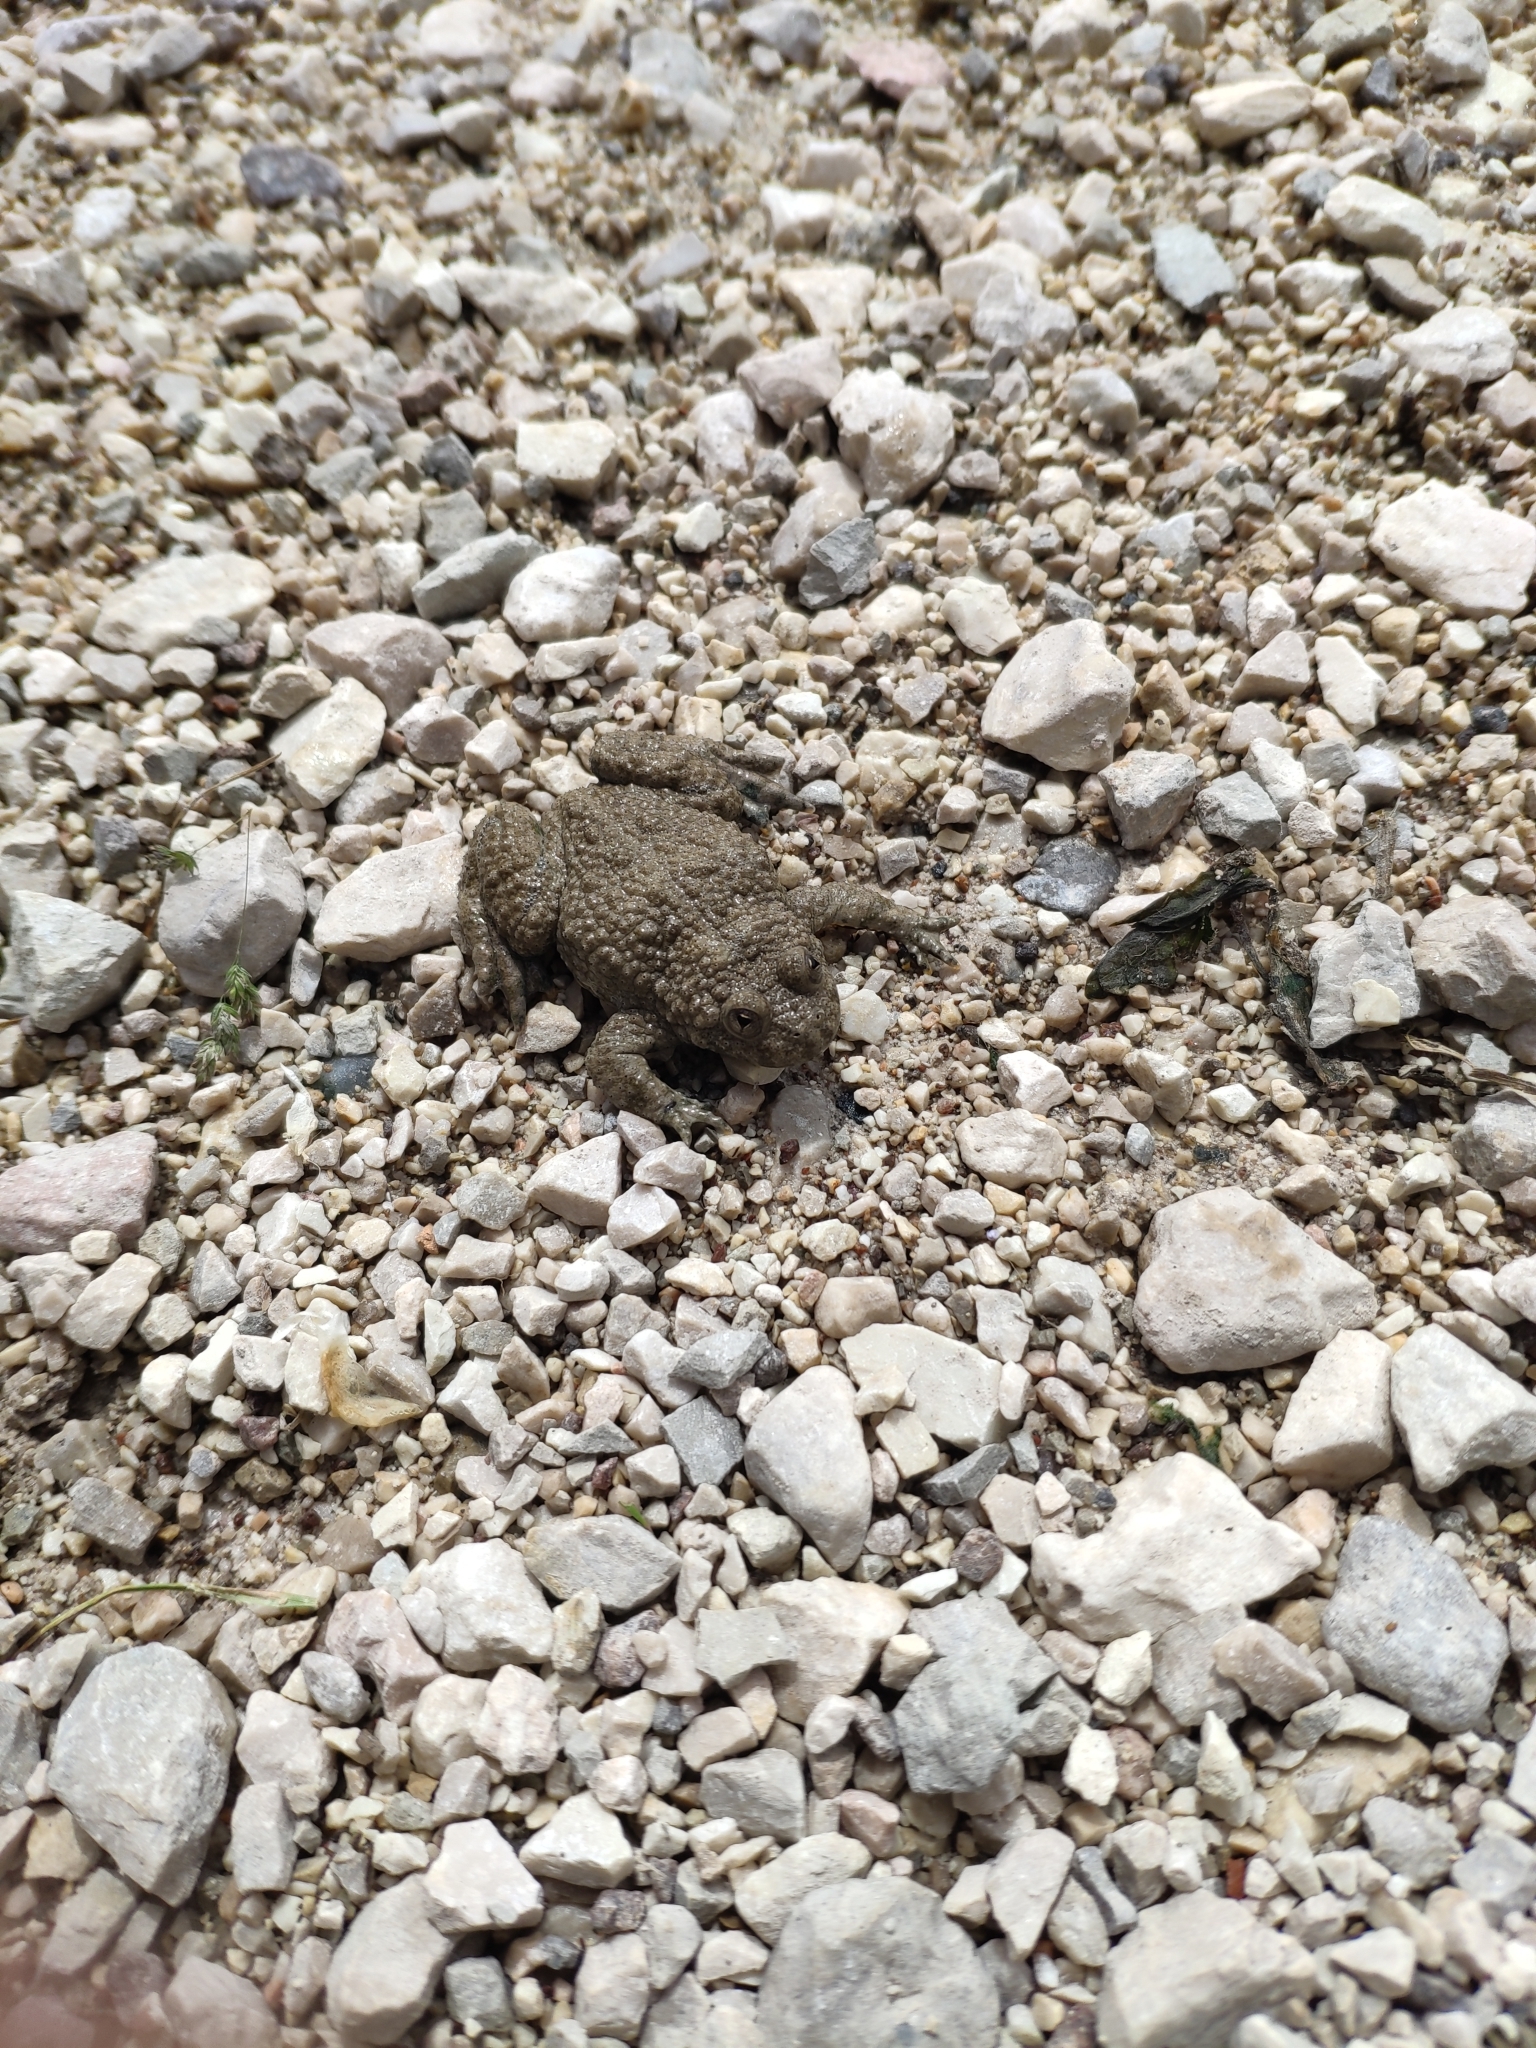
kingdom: Animalia
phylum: Chordata
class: Amphibia
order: Anura
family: Bombinatoridae
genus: Bombina
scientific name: Bombina variegata
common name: Yellow-bellied toad
